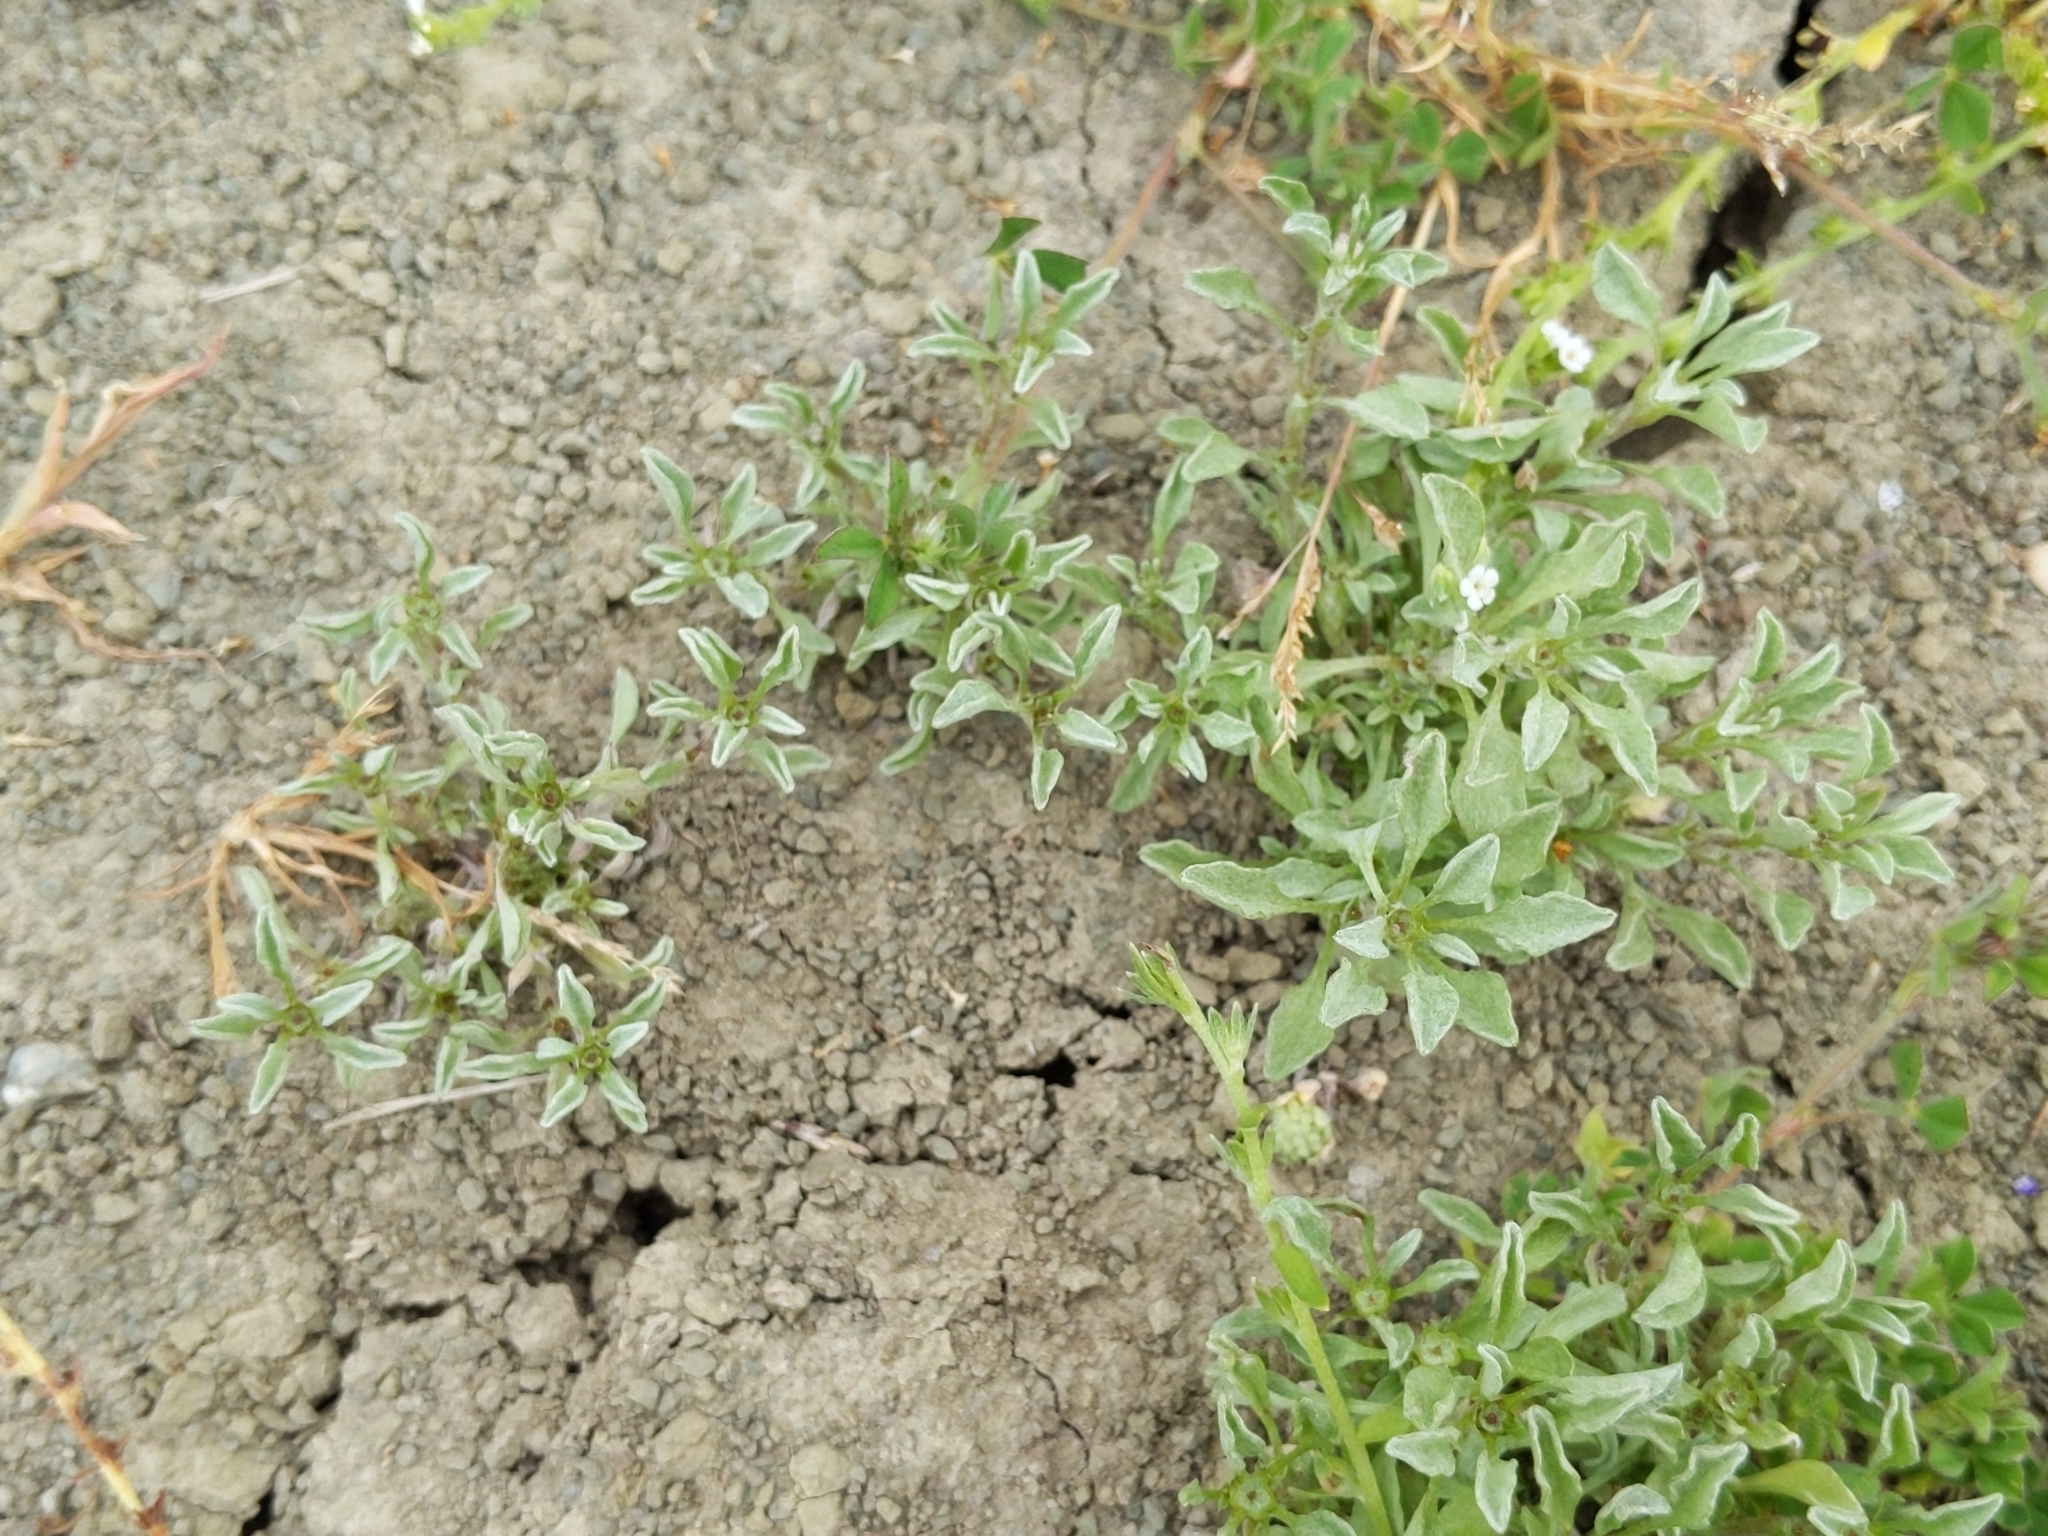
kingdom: Plantae
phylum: Tracheophyta
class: Magnoliopsida
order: Asterales
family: Asteraceae
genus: Hesperevax
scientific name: Hesperevax sparsiflora
